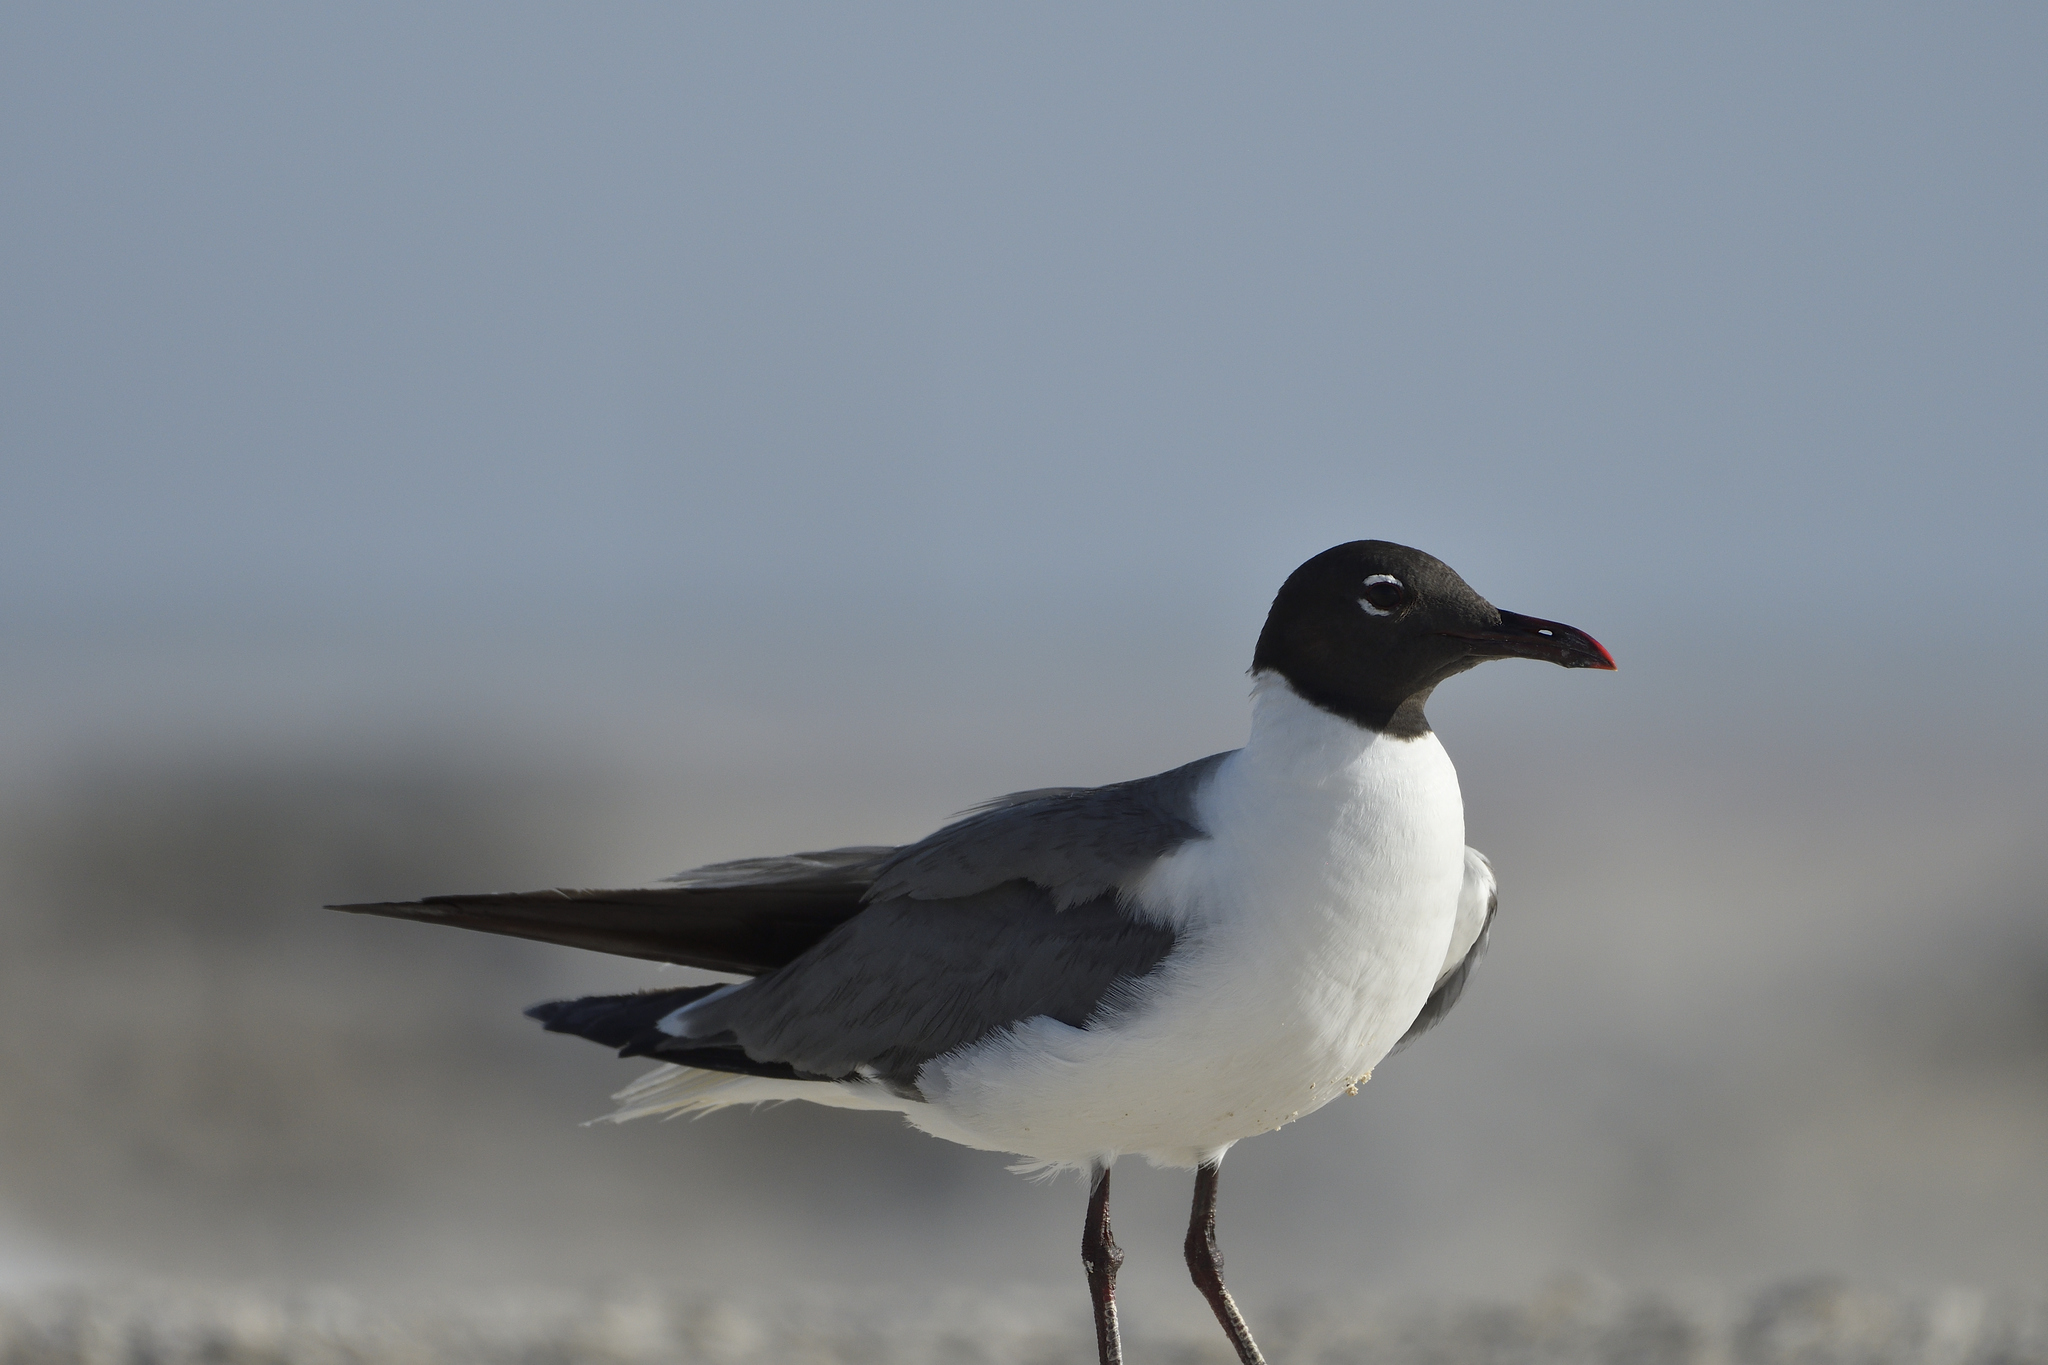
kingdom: Animalia
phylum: Chordata
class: Aves
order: Charadriiformes
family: Laridae
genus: Leucophaeus
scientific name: Leucophaeus atricilla
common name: Laughing gull
